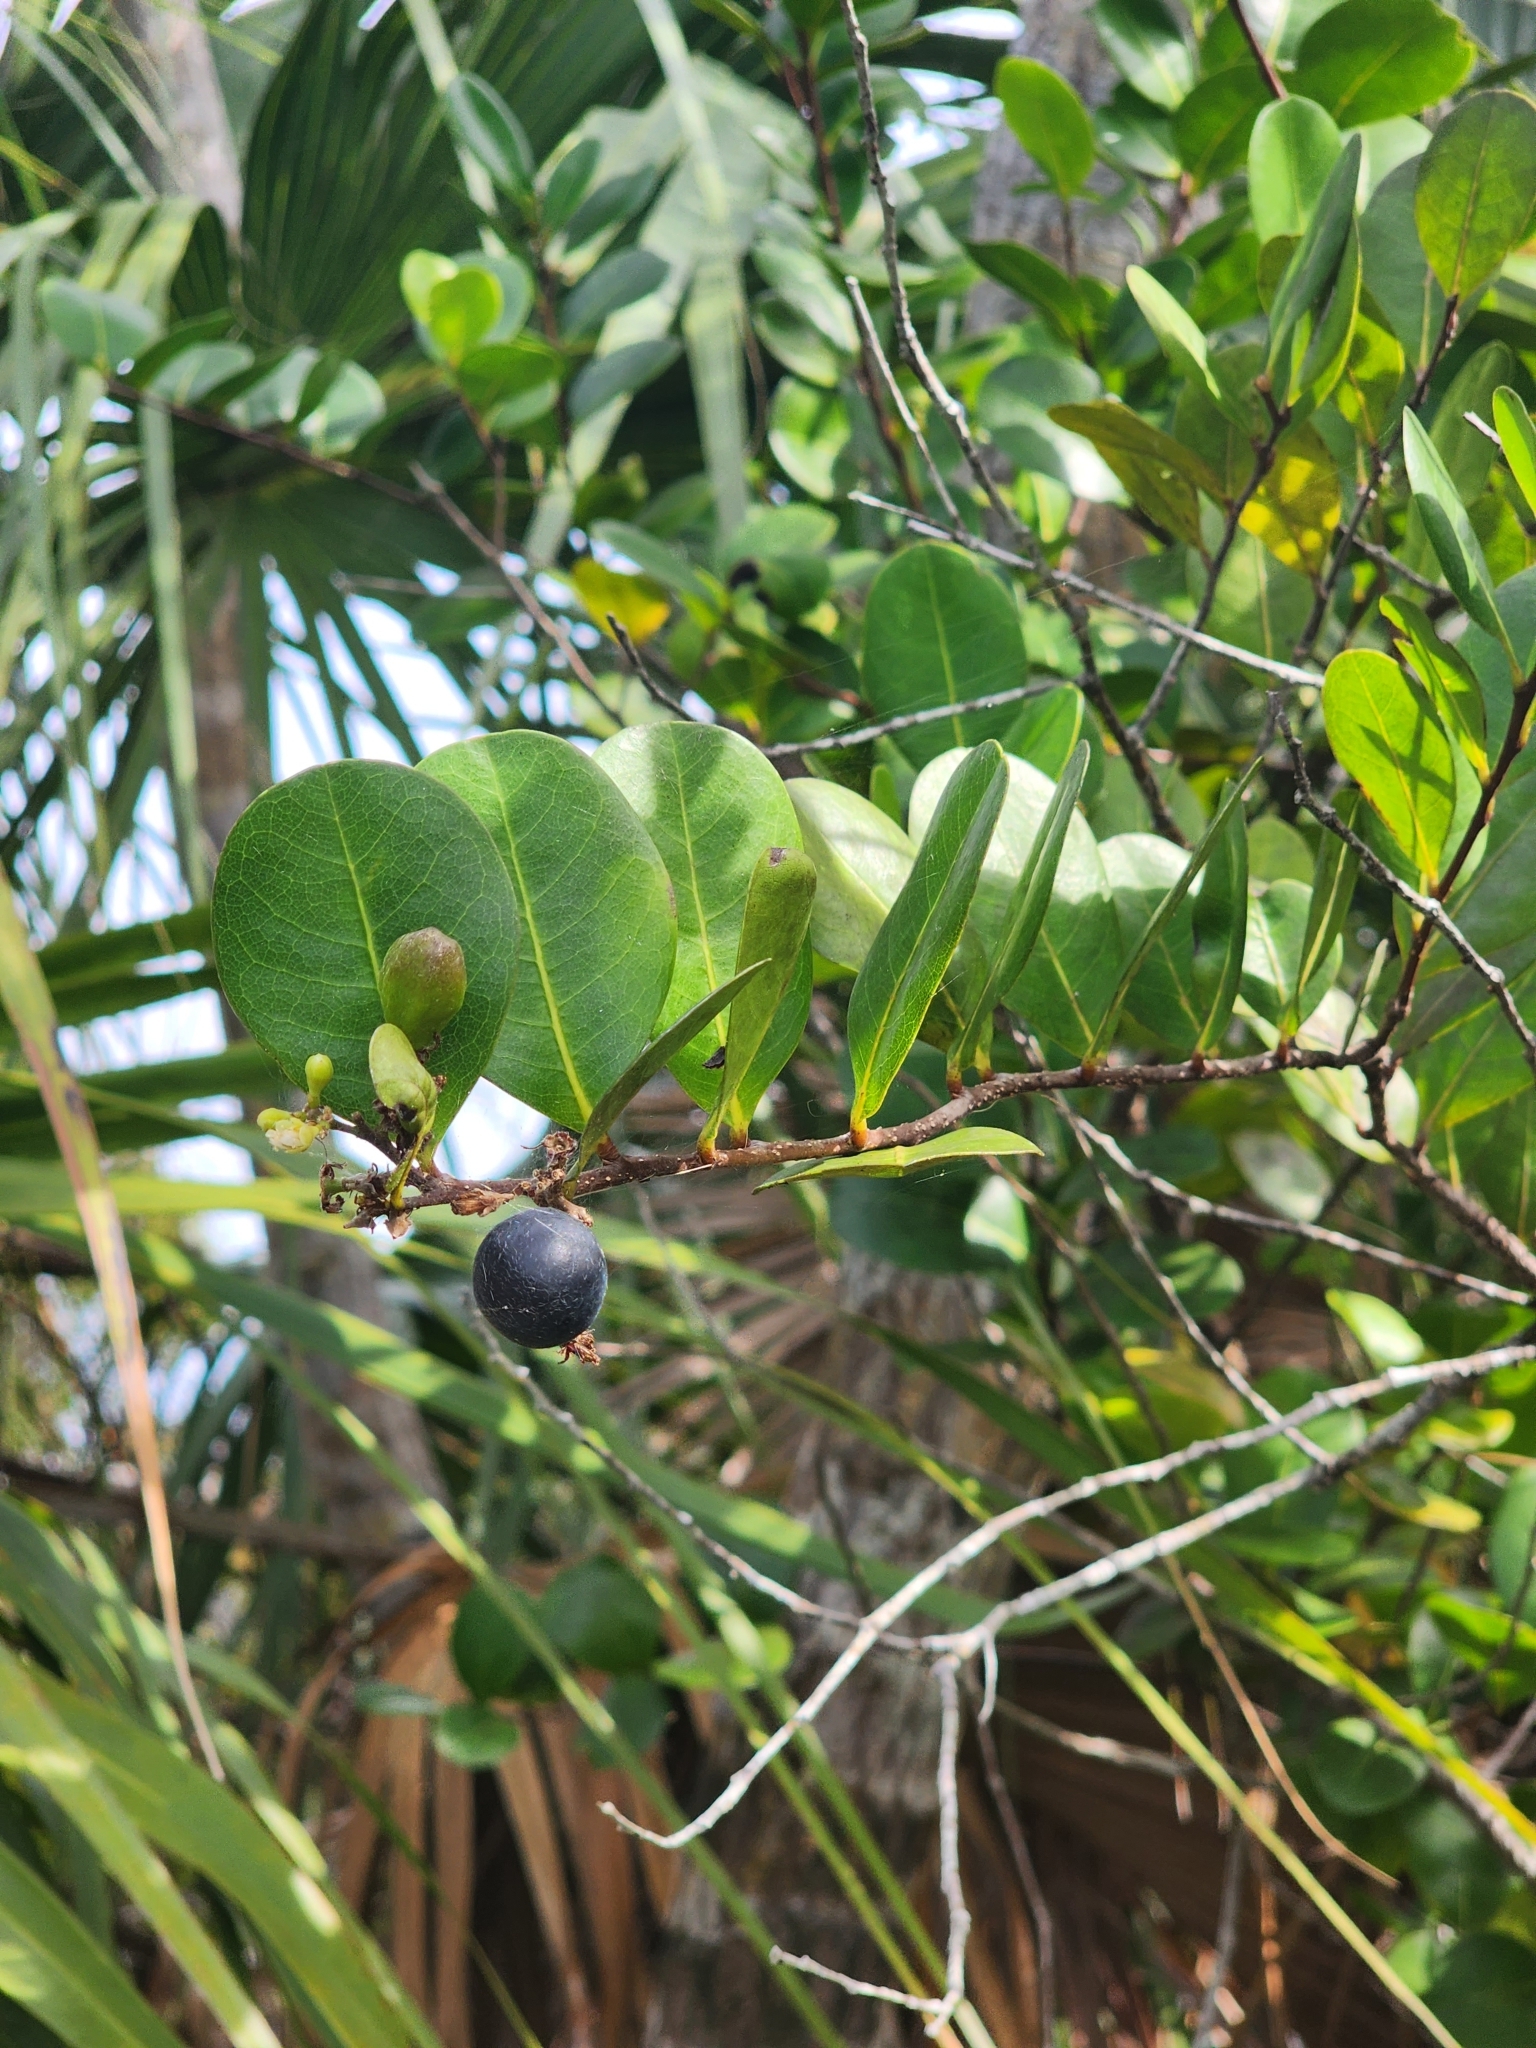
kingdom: Plantae
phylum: Tracheophyta
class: Magnoliopsida
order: Malpighiales
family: Chrysobalanaceae
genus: Chrysobalanus
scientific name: Chrysobalanus icaco
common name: Coco plum
